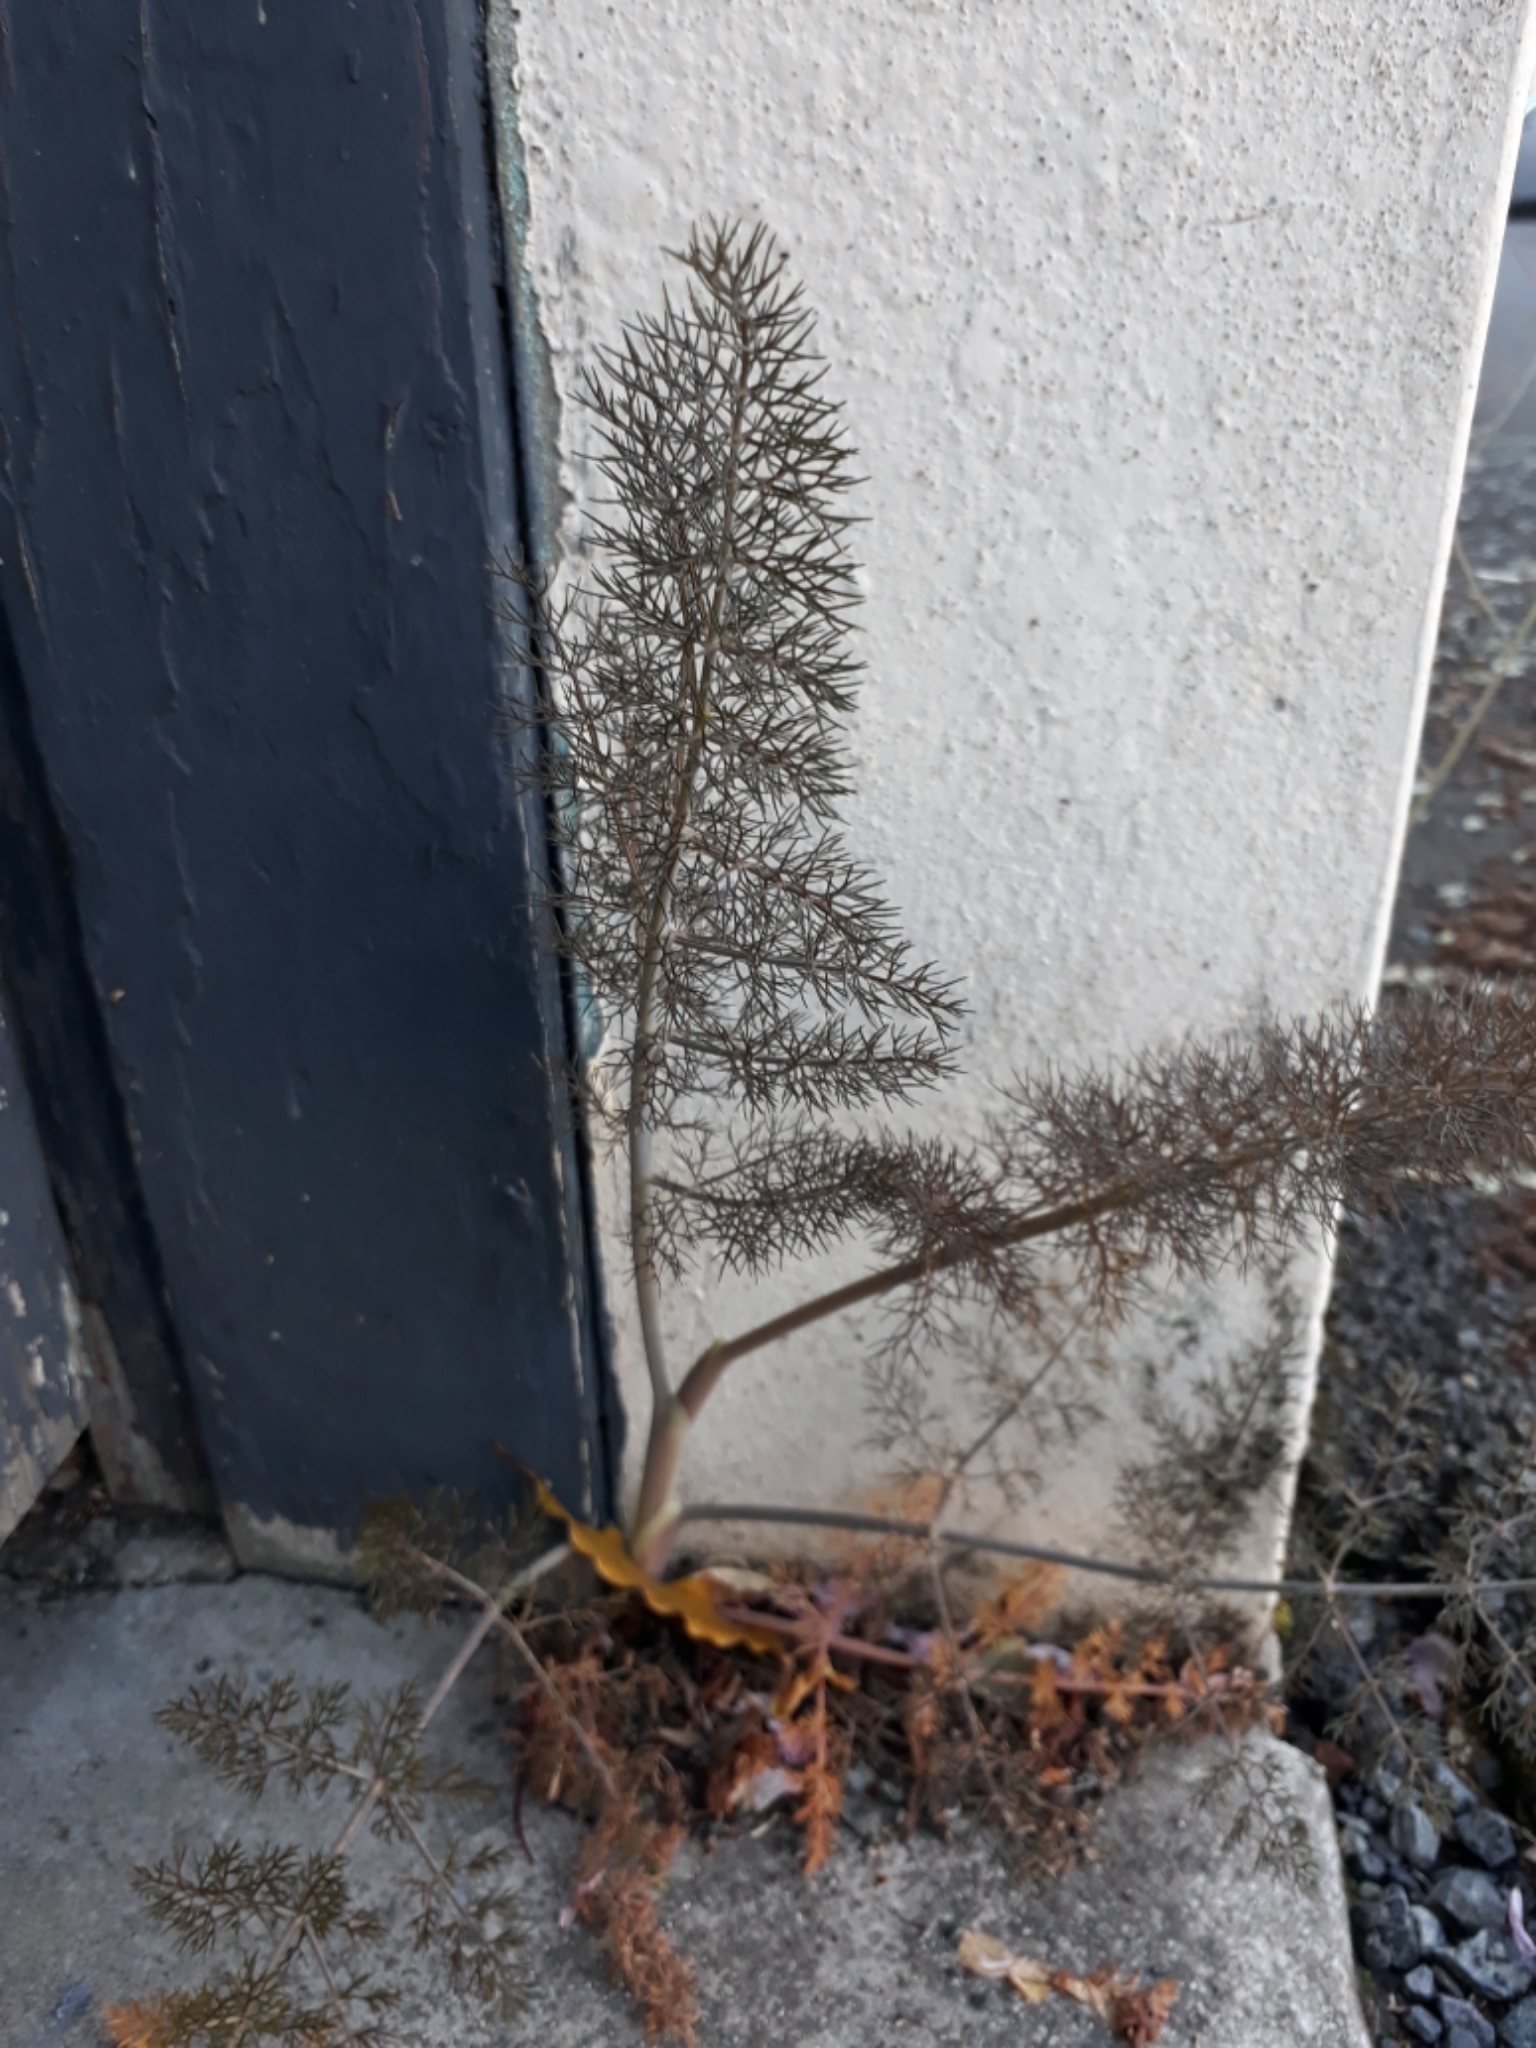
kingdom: Plantae
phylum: Tracheophyta
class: Magnoliopsida
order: Apiales
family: Apiaceae
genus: Foeniculum
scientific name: Foeniculum vulgare
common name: Fennel
